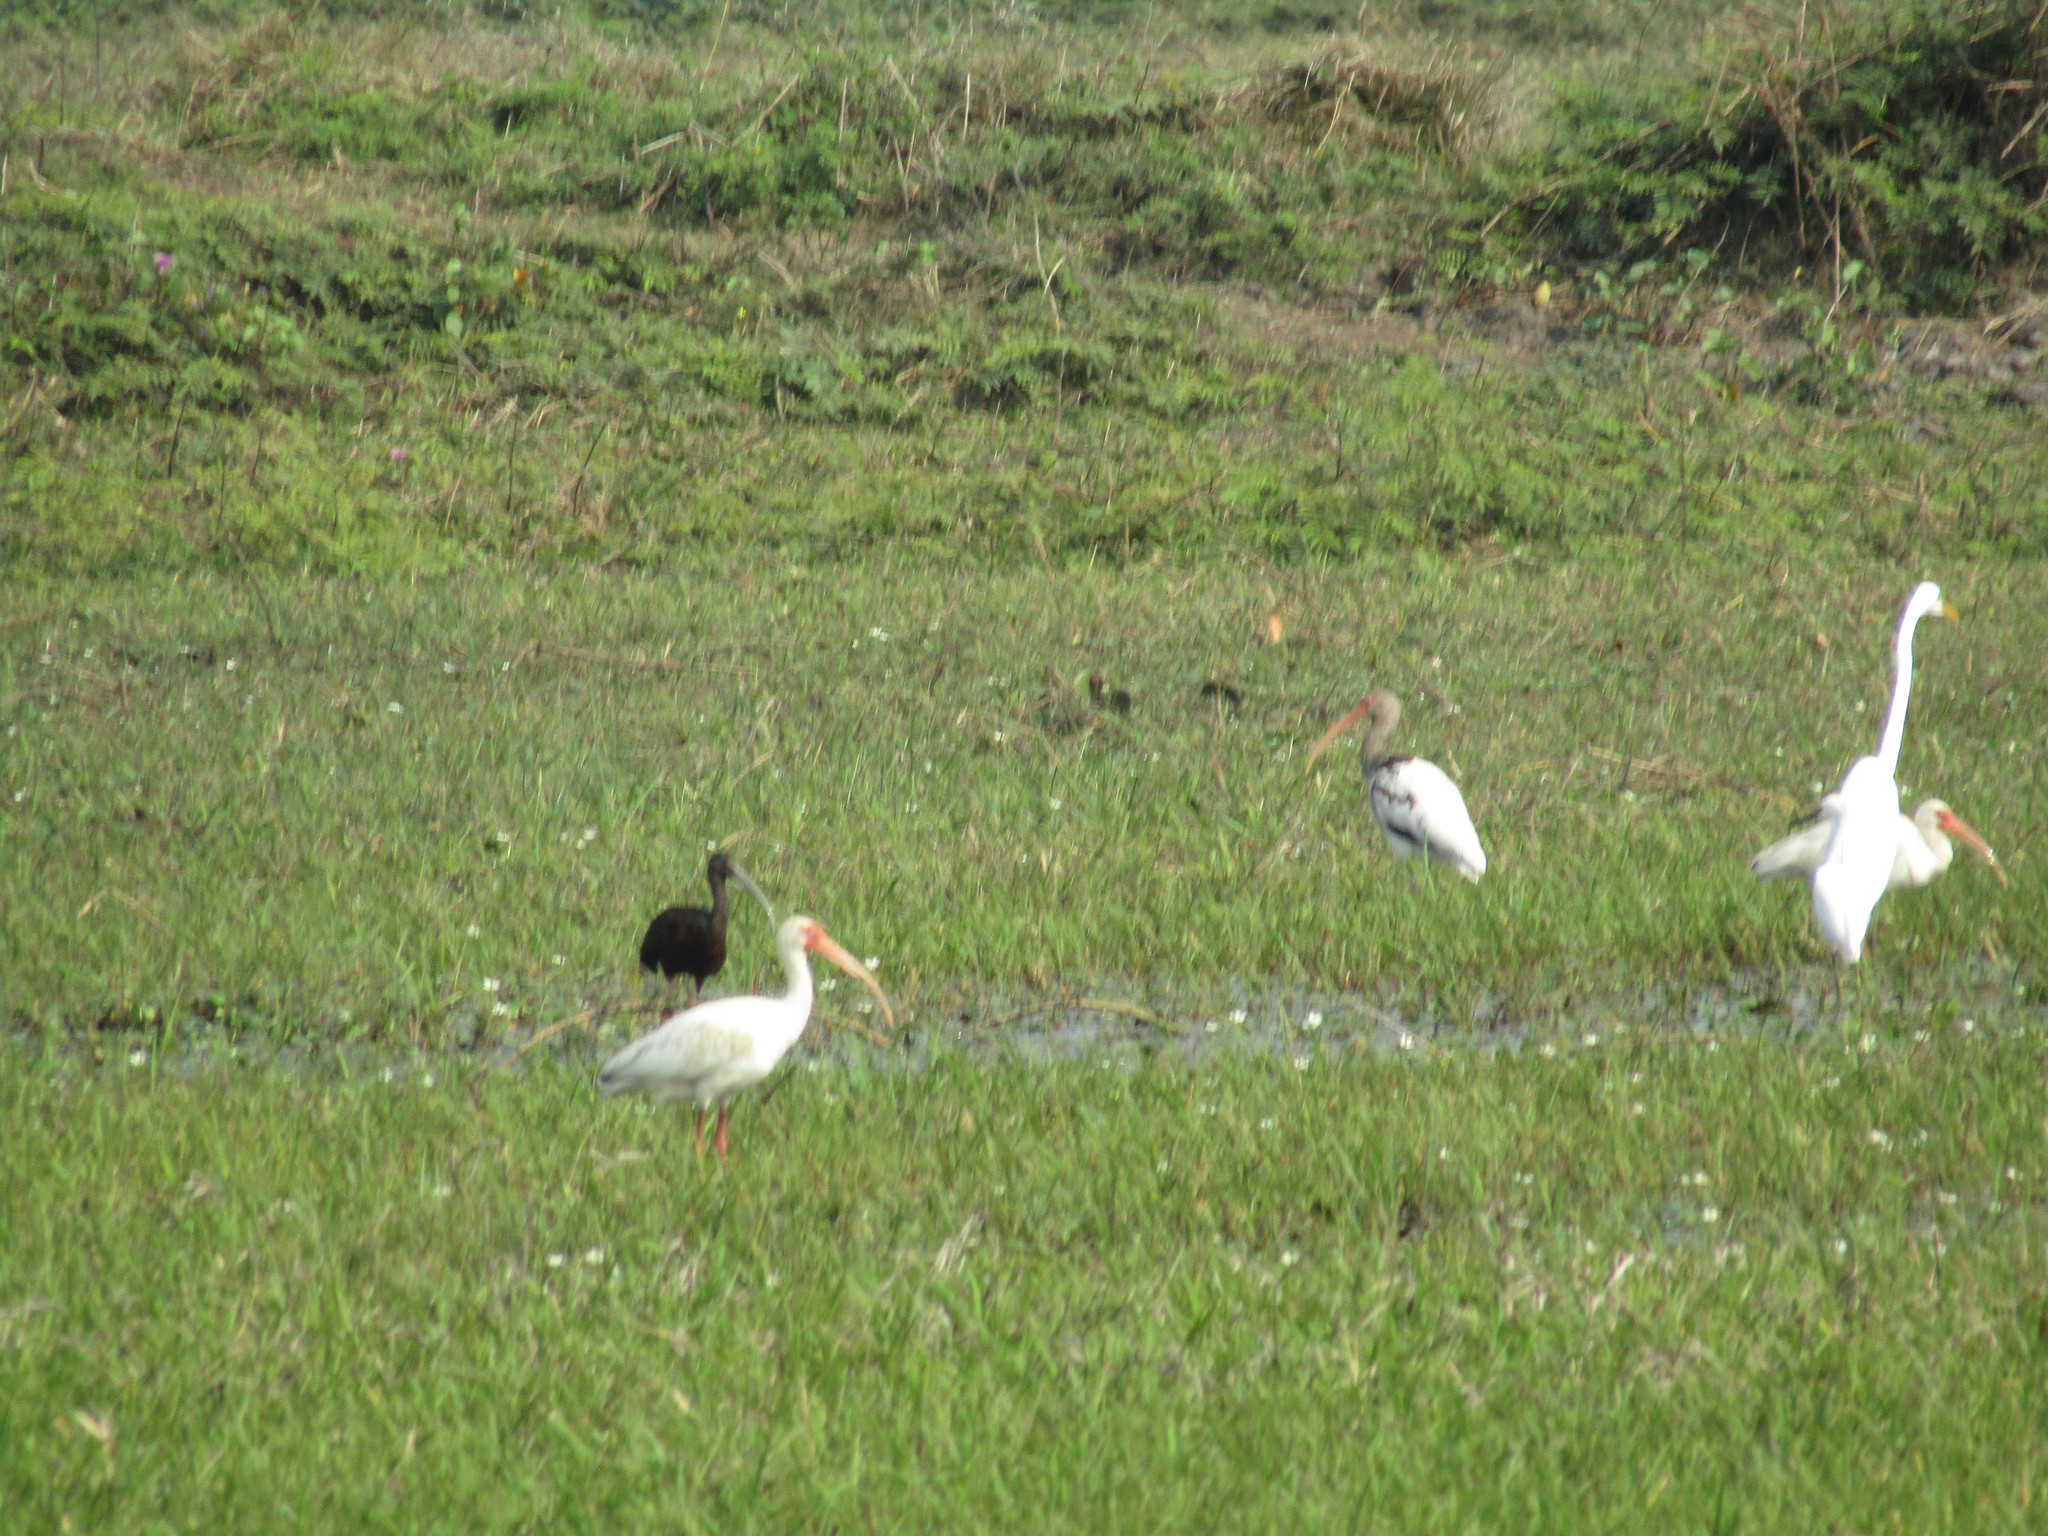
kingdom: Animalia
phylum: Chordata
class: Aves
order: Pelecaniformes
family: Threskiornithidae
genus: Plegadis
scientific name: Plegadis chihi
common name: White-faced ibis
